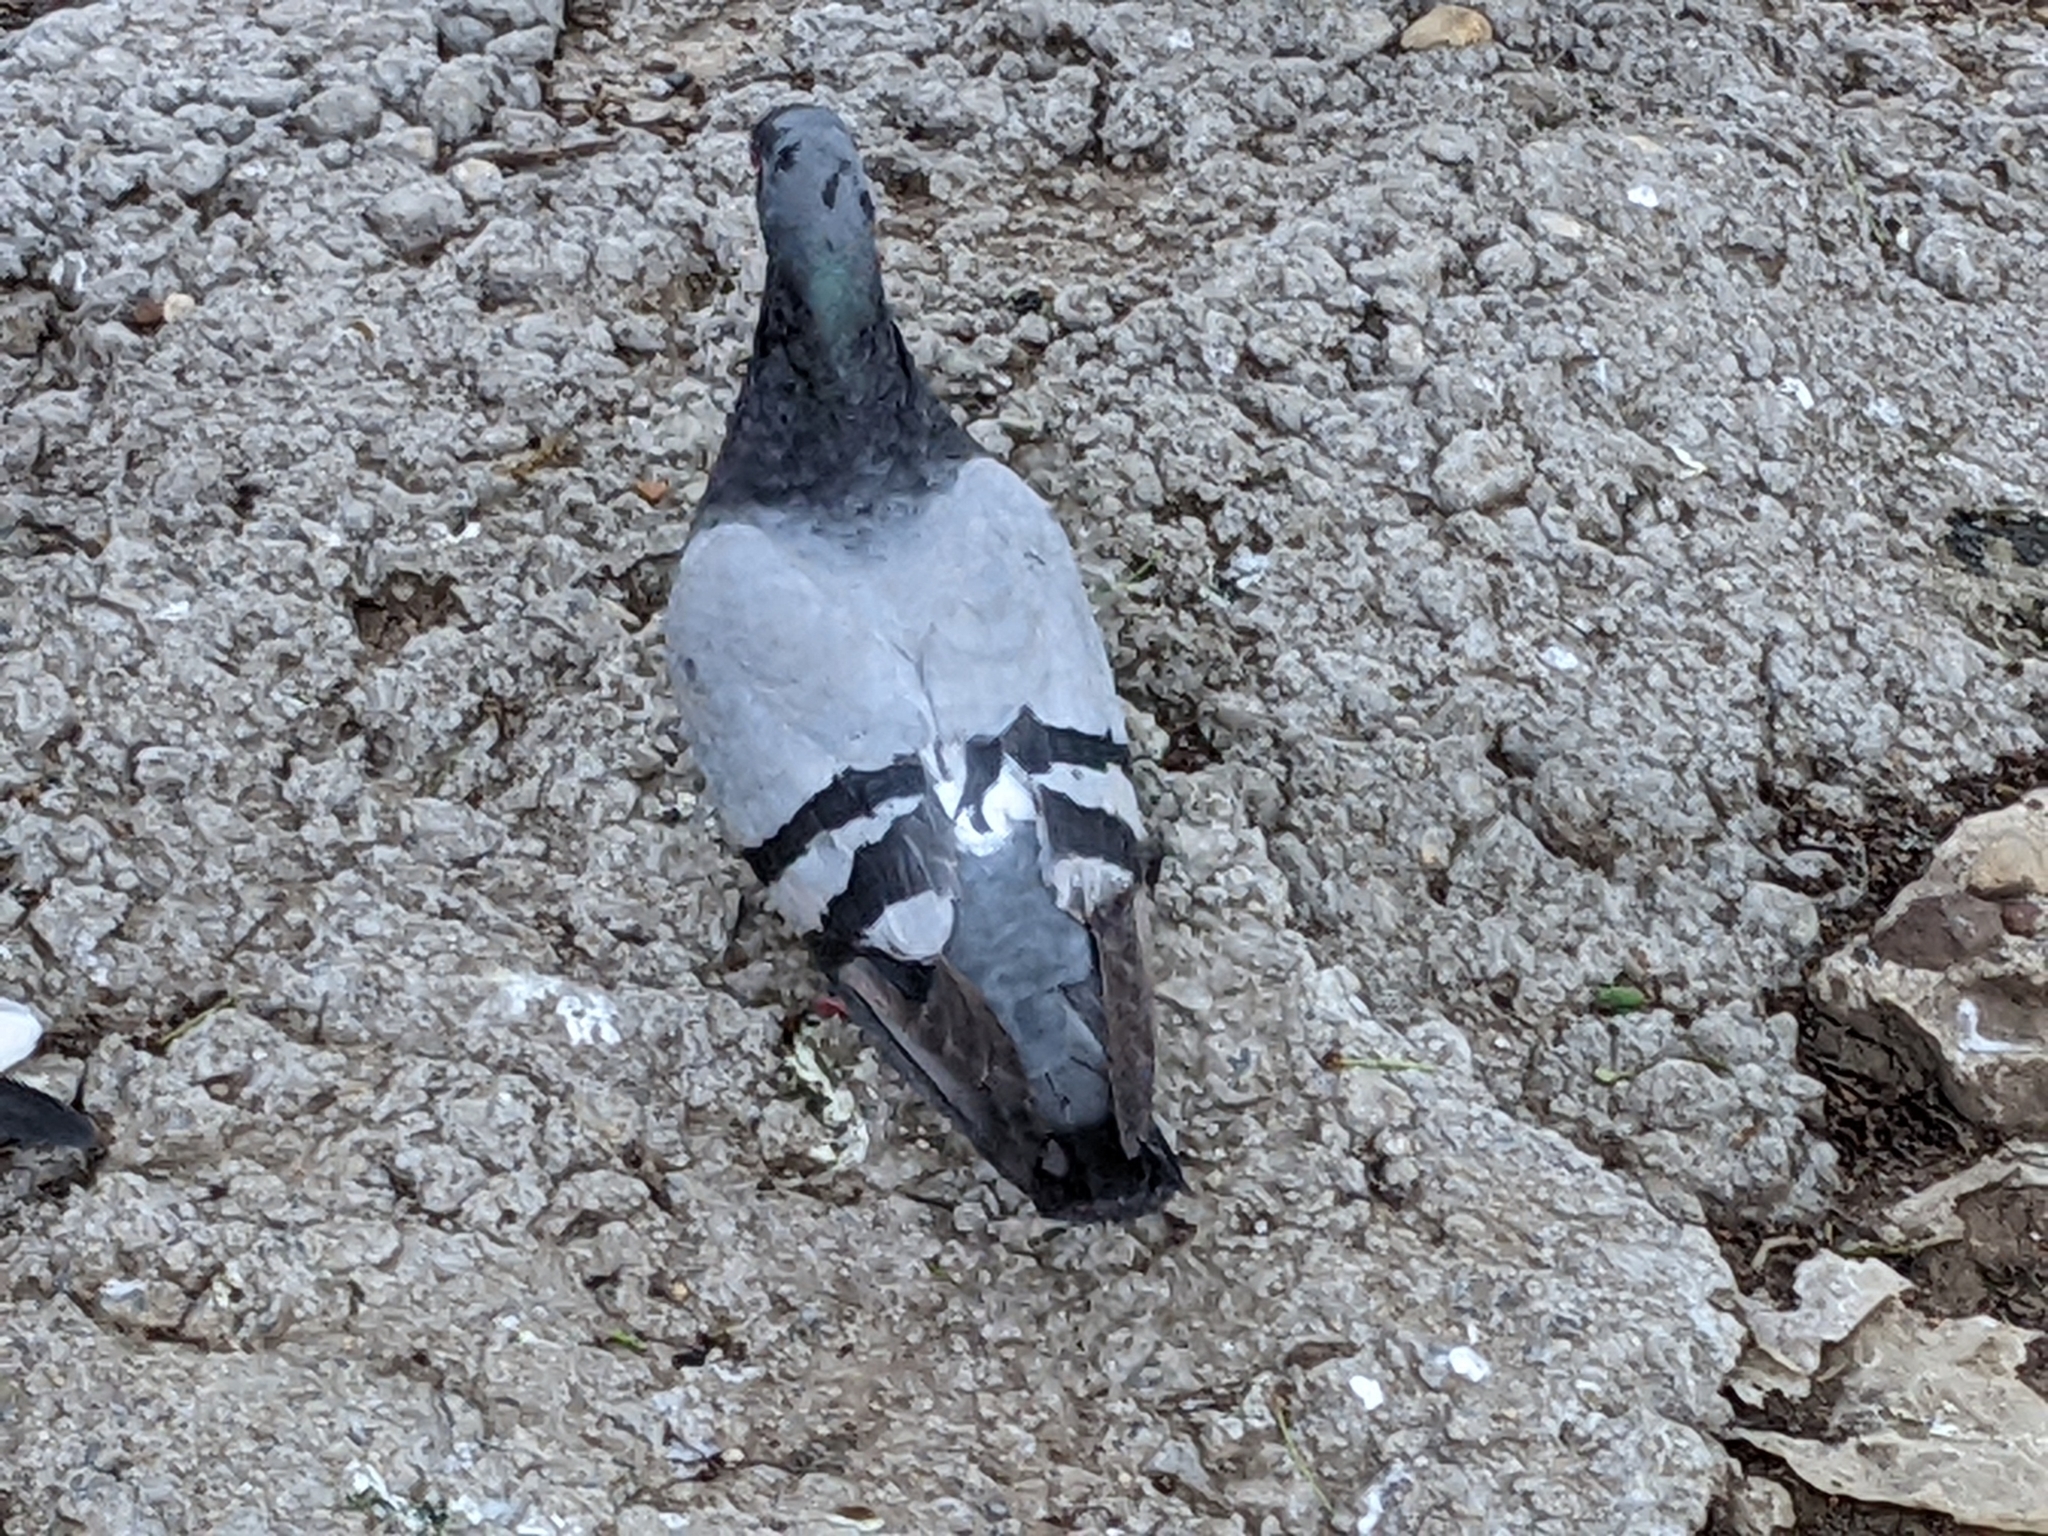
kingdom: Animalia
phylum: Chordata
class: Aves
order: Columbiformes
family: Columbidae
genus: Columba
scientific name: Columba livia
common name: Rock pigeon
